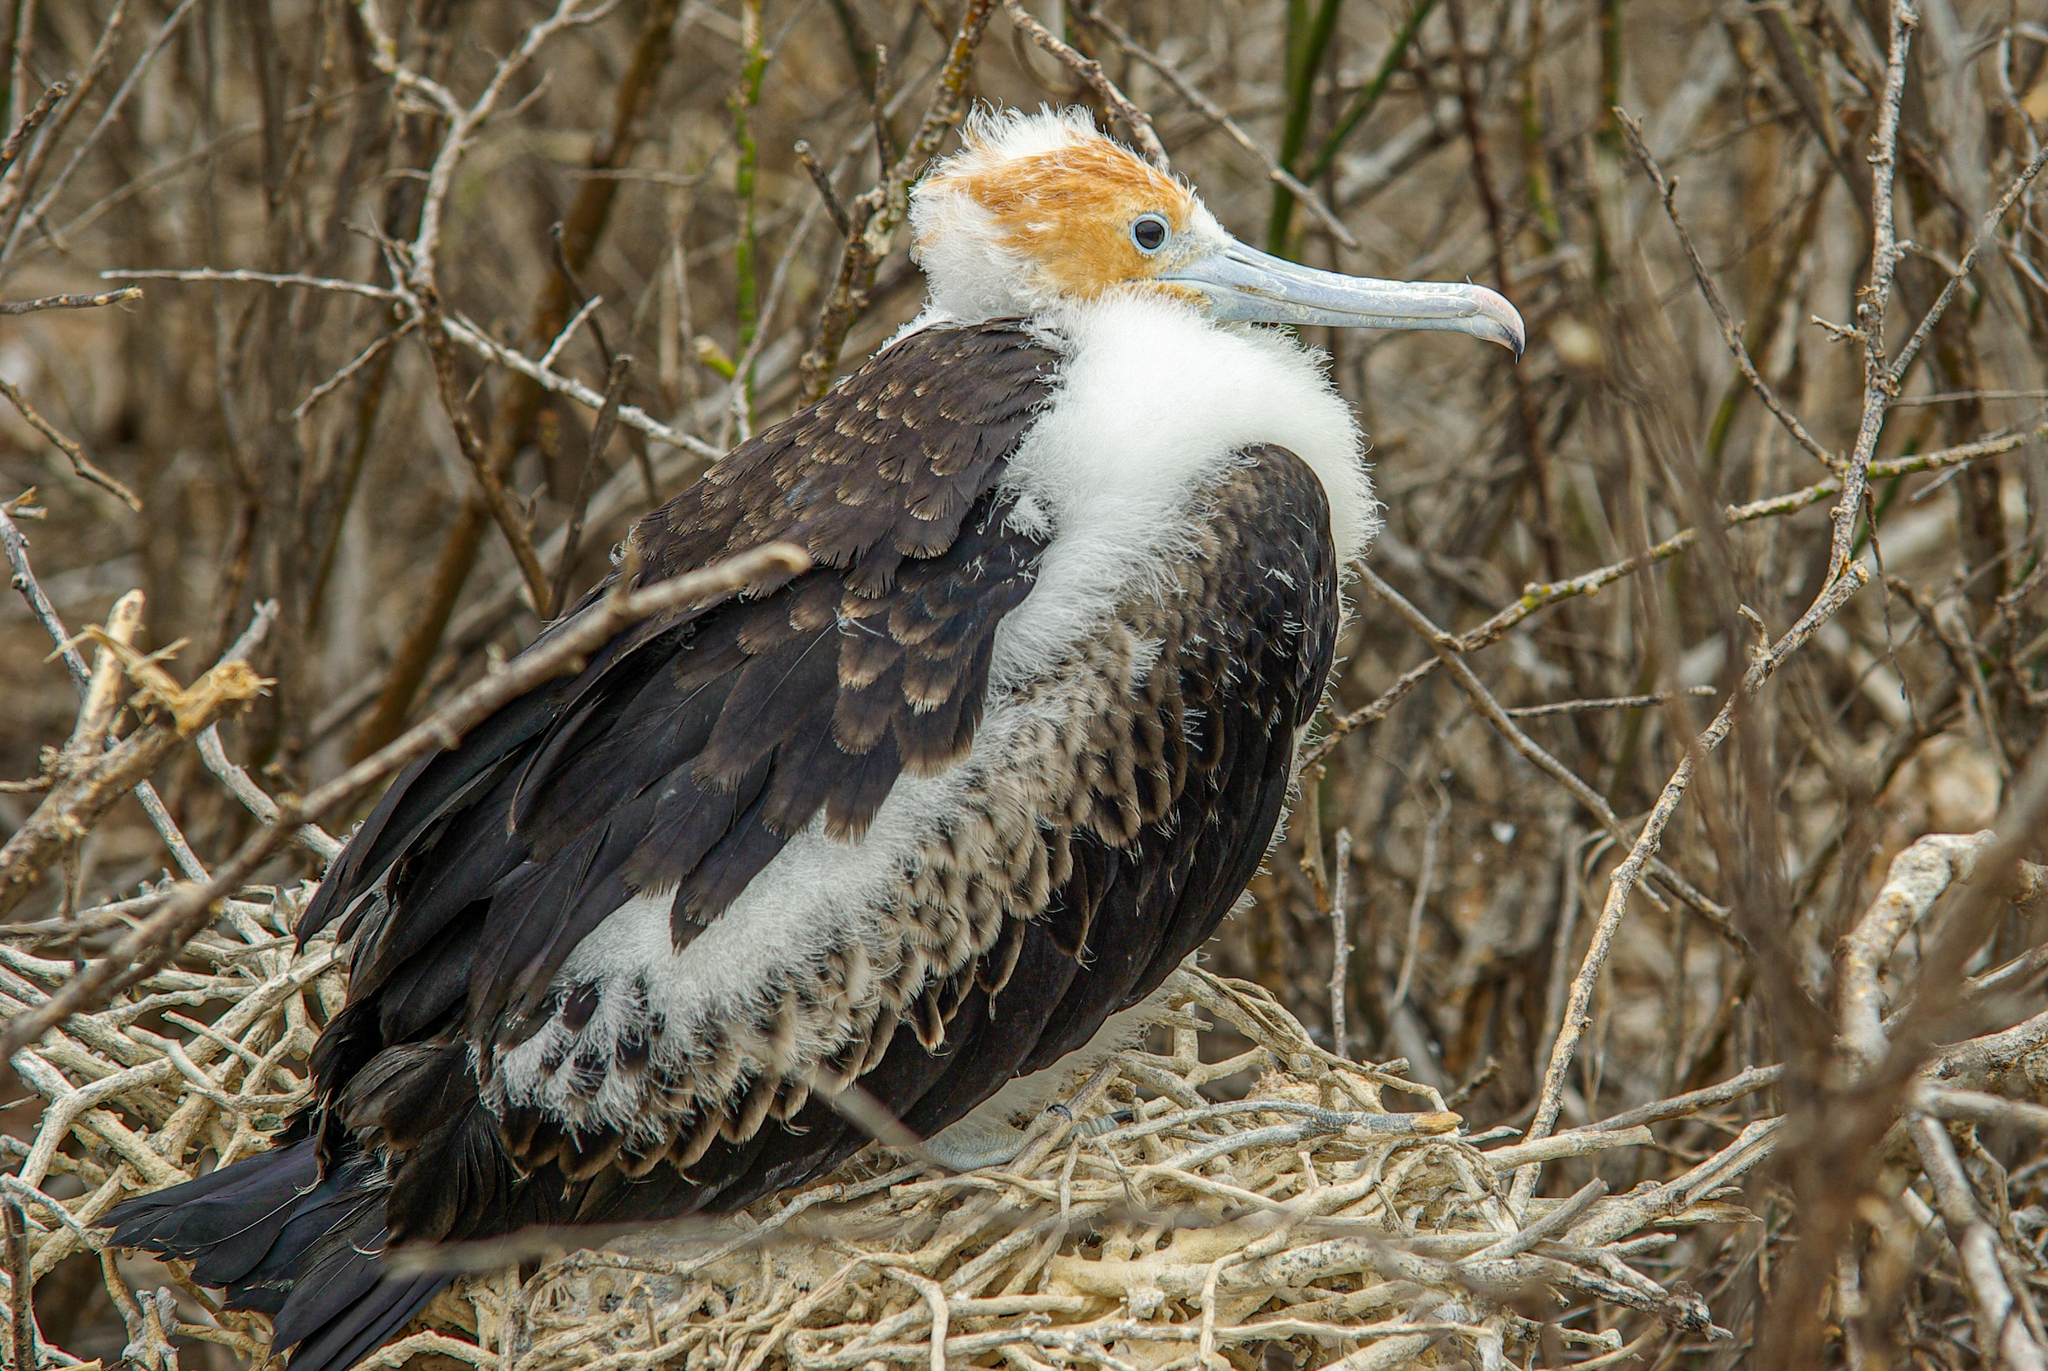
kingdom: Animalia
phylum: Chordata
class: Aves
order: Suliformes
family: Fregatidae
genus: Fregata
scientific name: Fregata minor
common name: Great frigatebird
